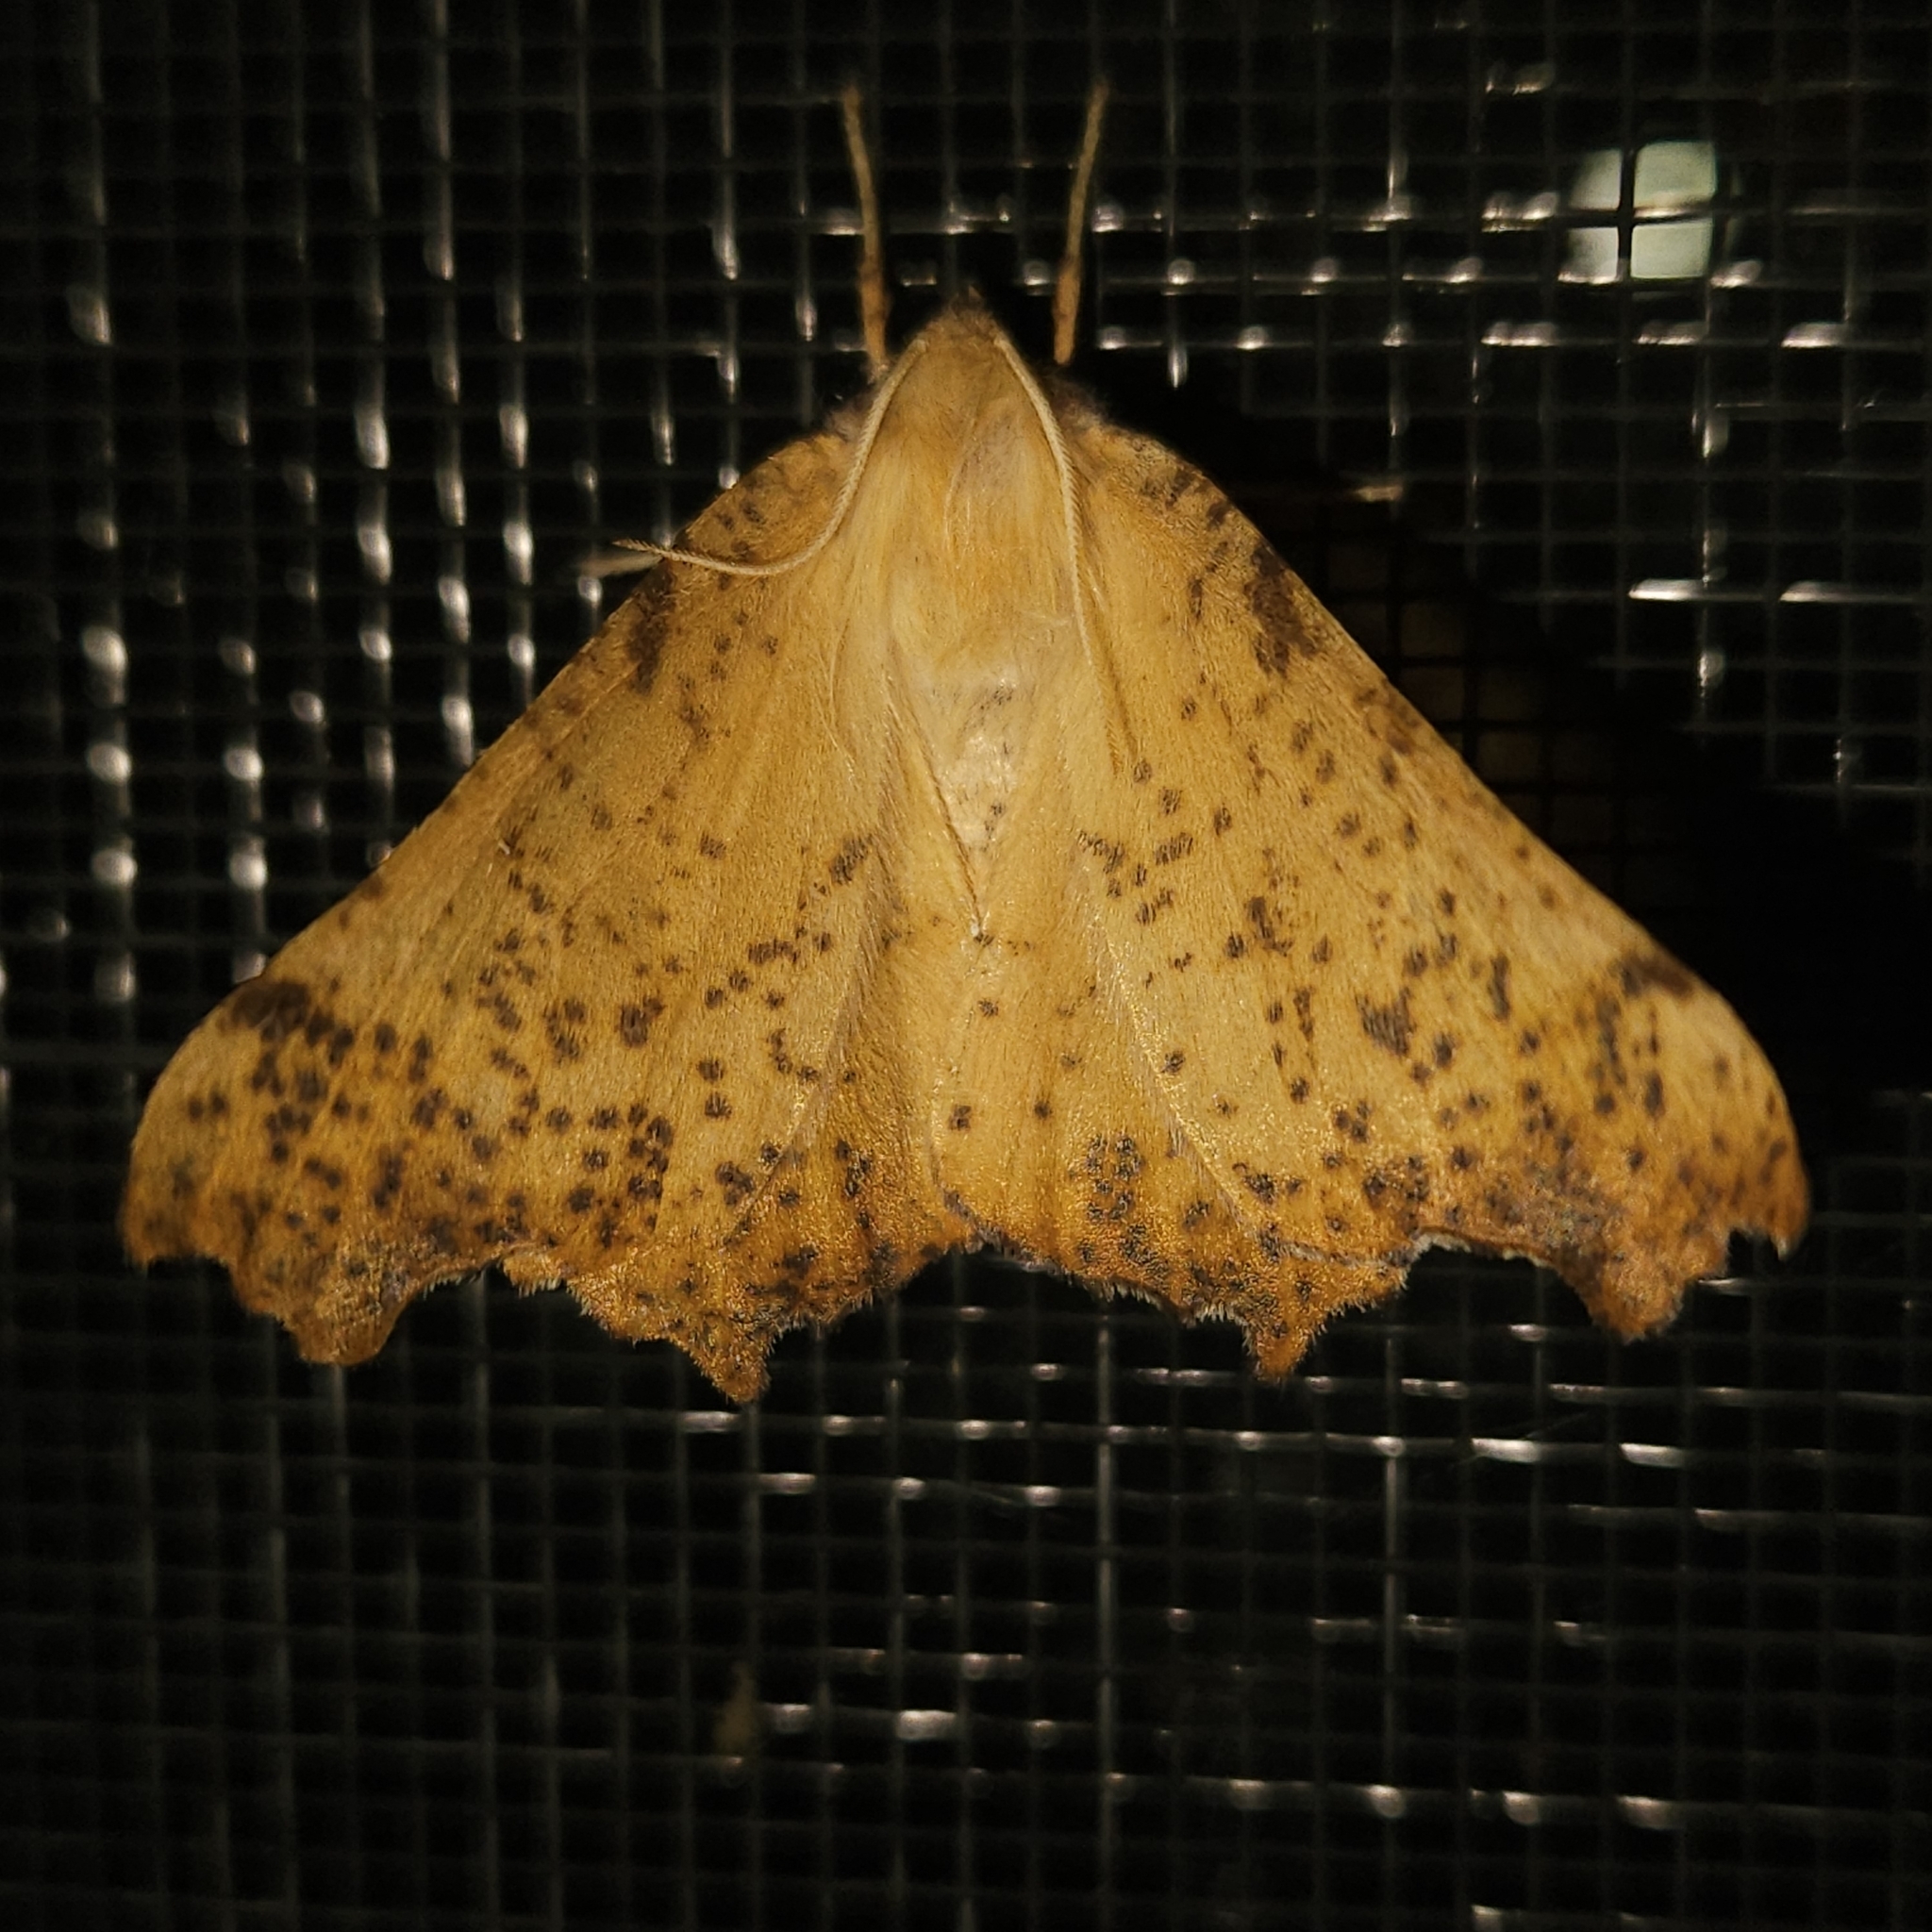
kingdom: Animalia
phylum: Arthropoda
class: Insecta
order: Lepidoptera
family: Geometridae
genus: Ennomos
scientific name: Ennomos magnaria
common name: Maple spanworm
